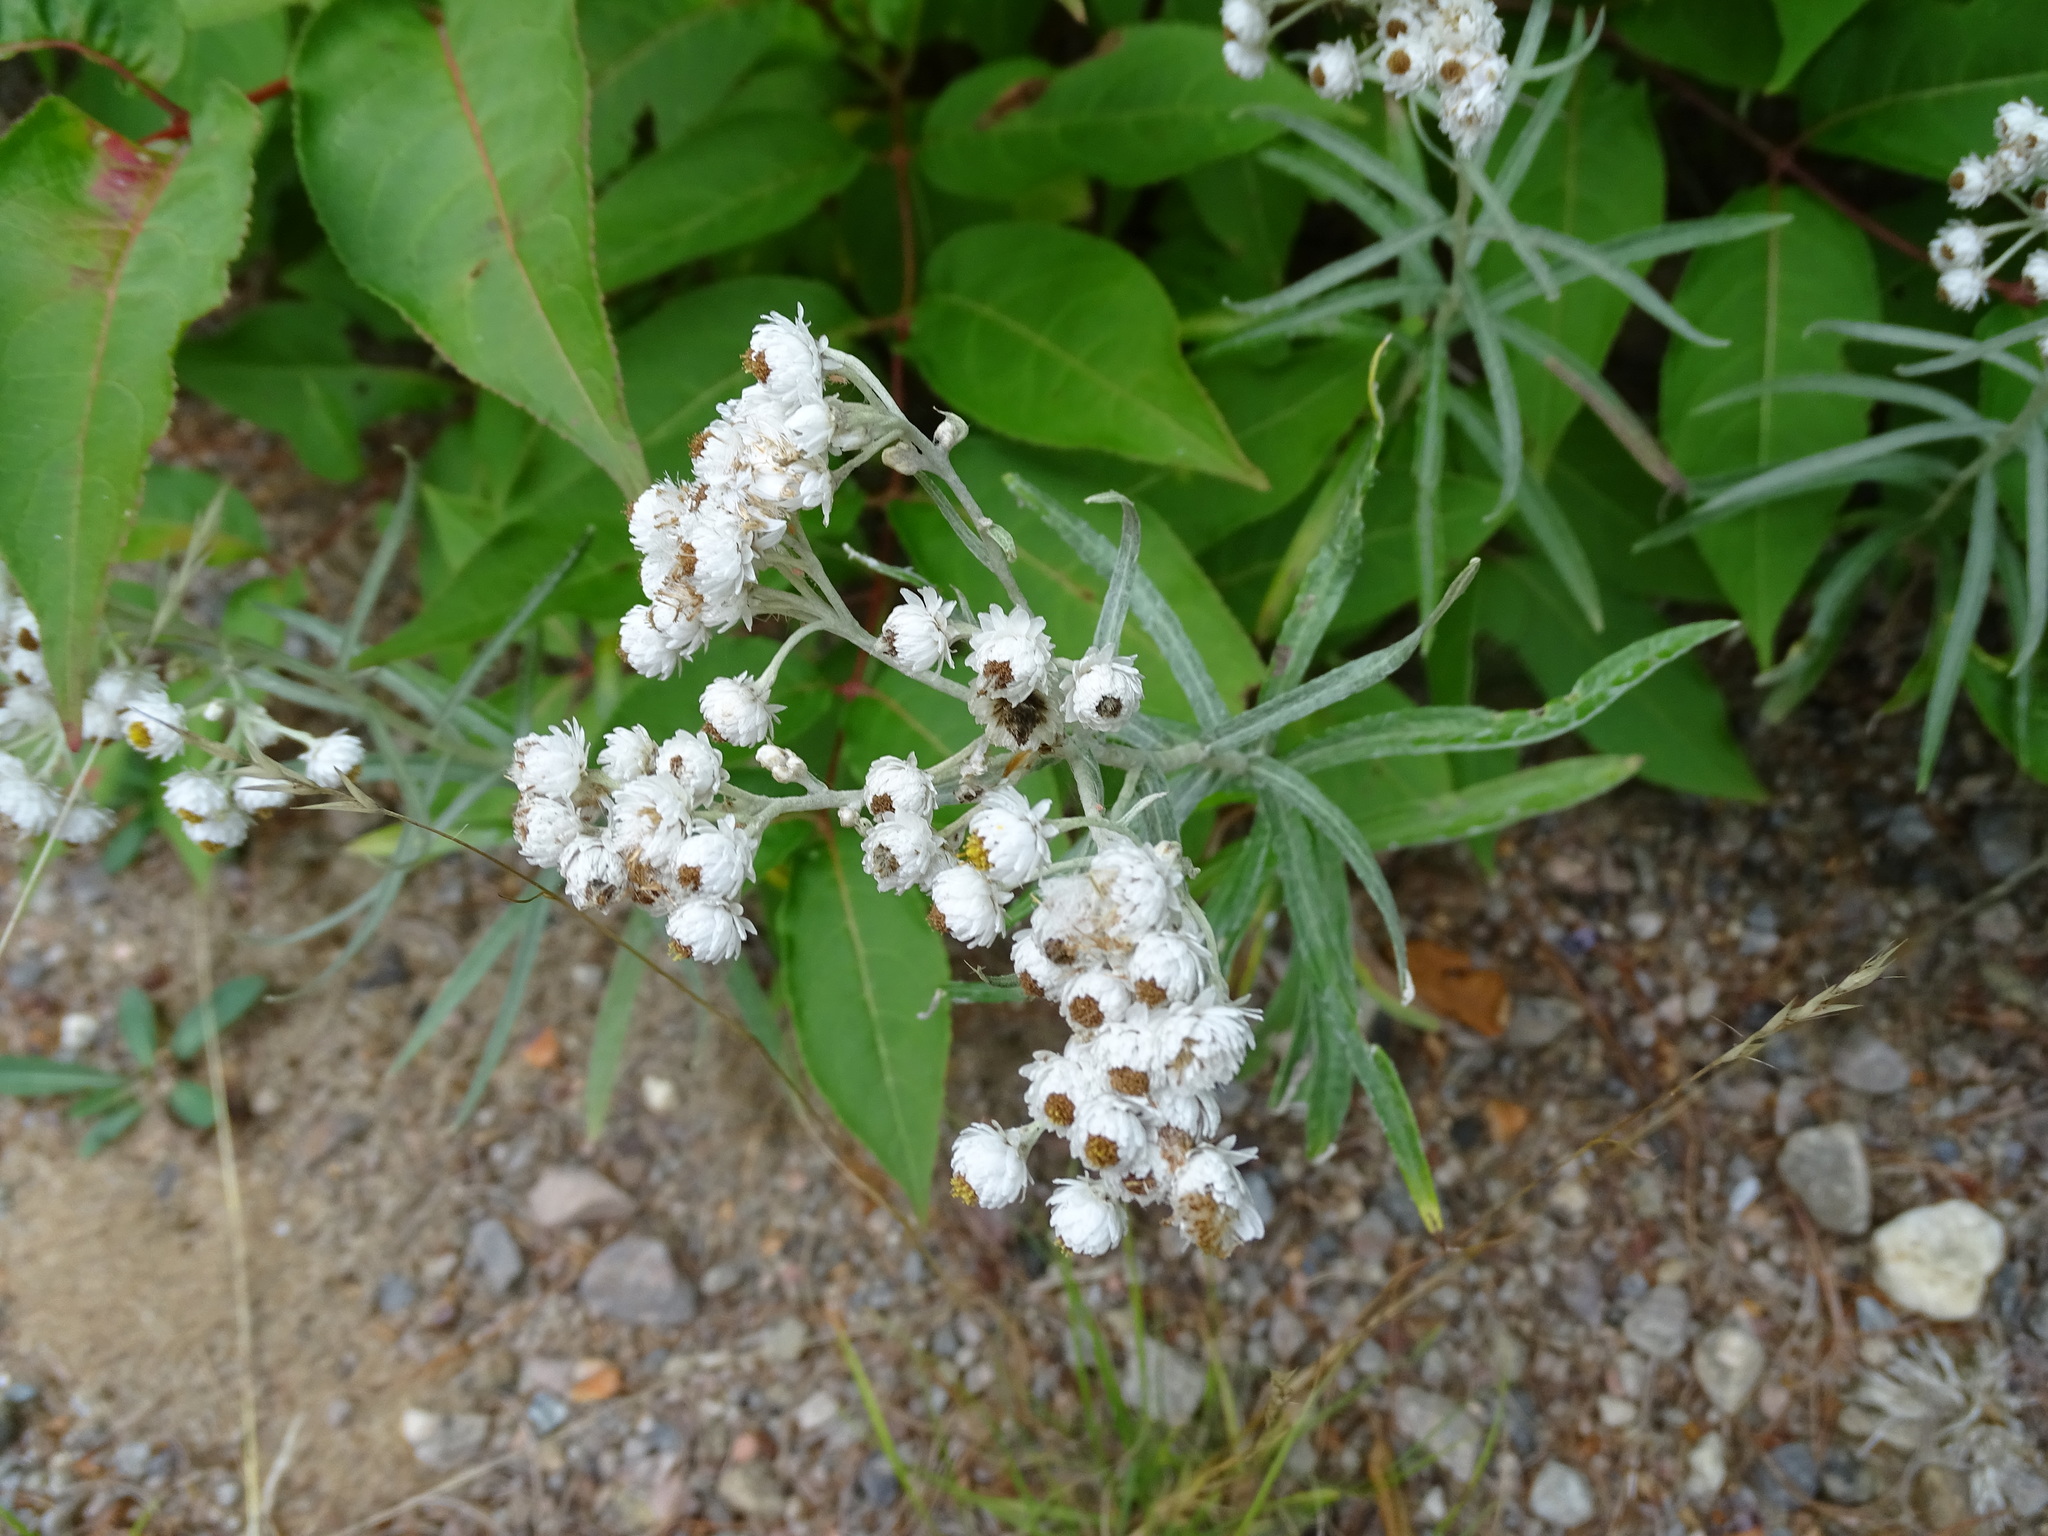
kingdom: Plantae
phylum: Tracheophyta
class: Magnoliopsida
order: Asterales
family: Asteraceae
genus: Anaphalis
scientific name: Anaphalis margaritacea
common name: Pearly everlasting
